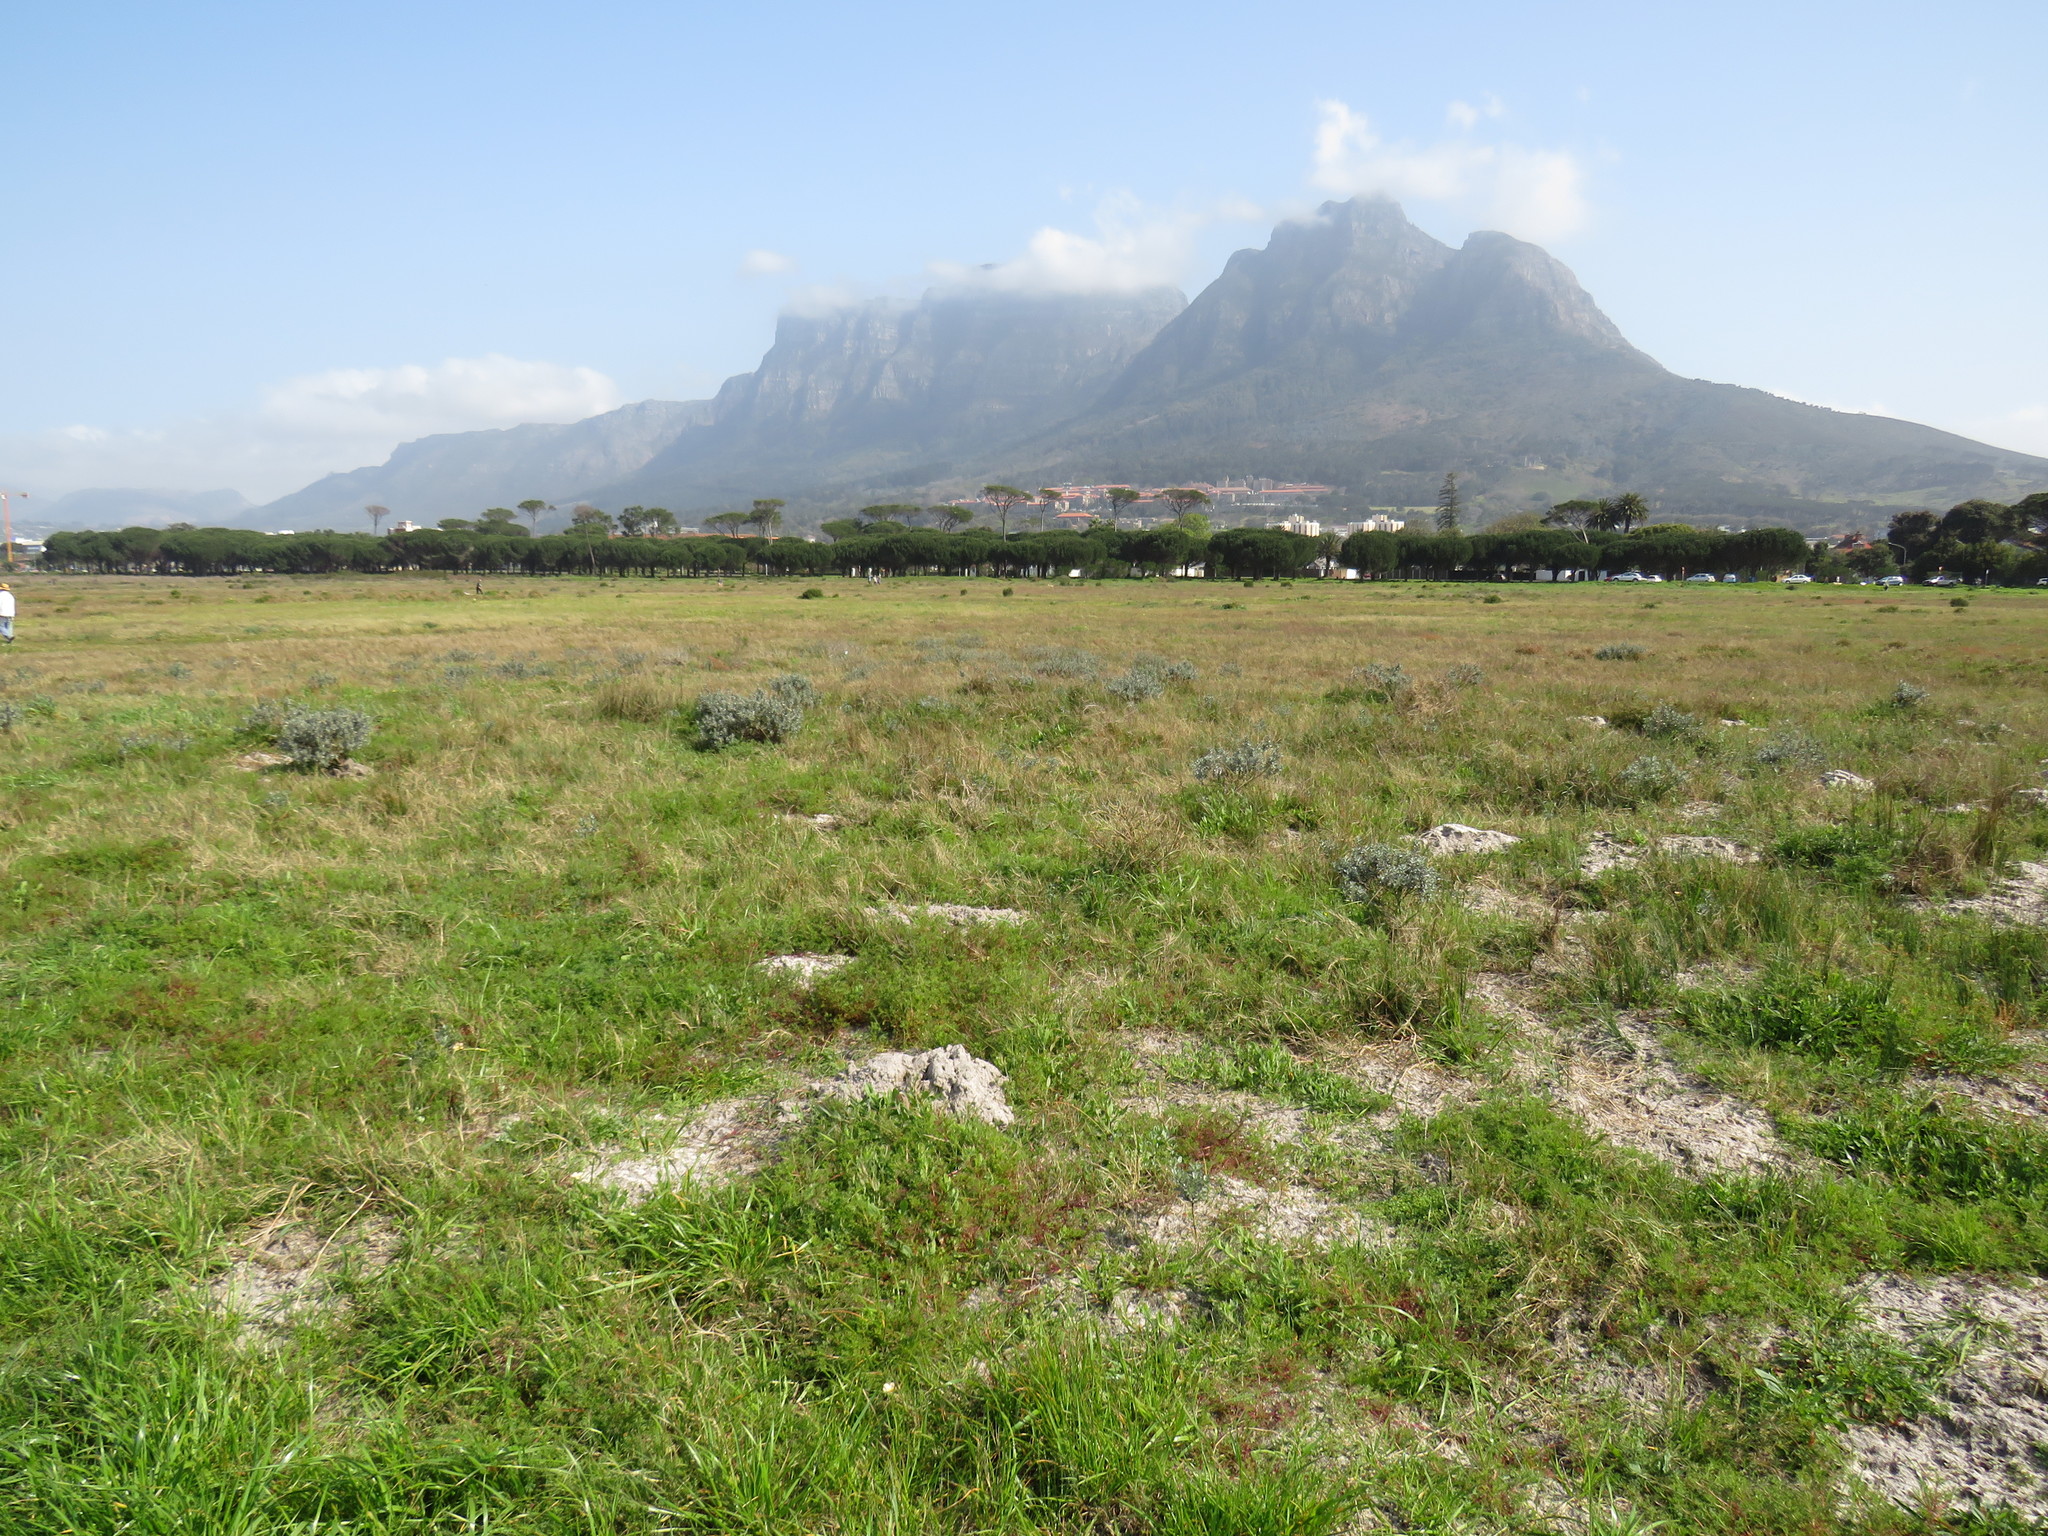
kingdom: Plantae
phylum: Tracheophyta
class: Magnoliopsida
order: Fabales
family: Fabaceae
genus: Podalyria
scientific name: Podalyria sericea
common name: Silver podalyria
